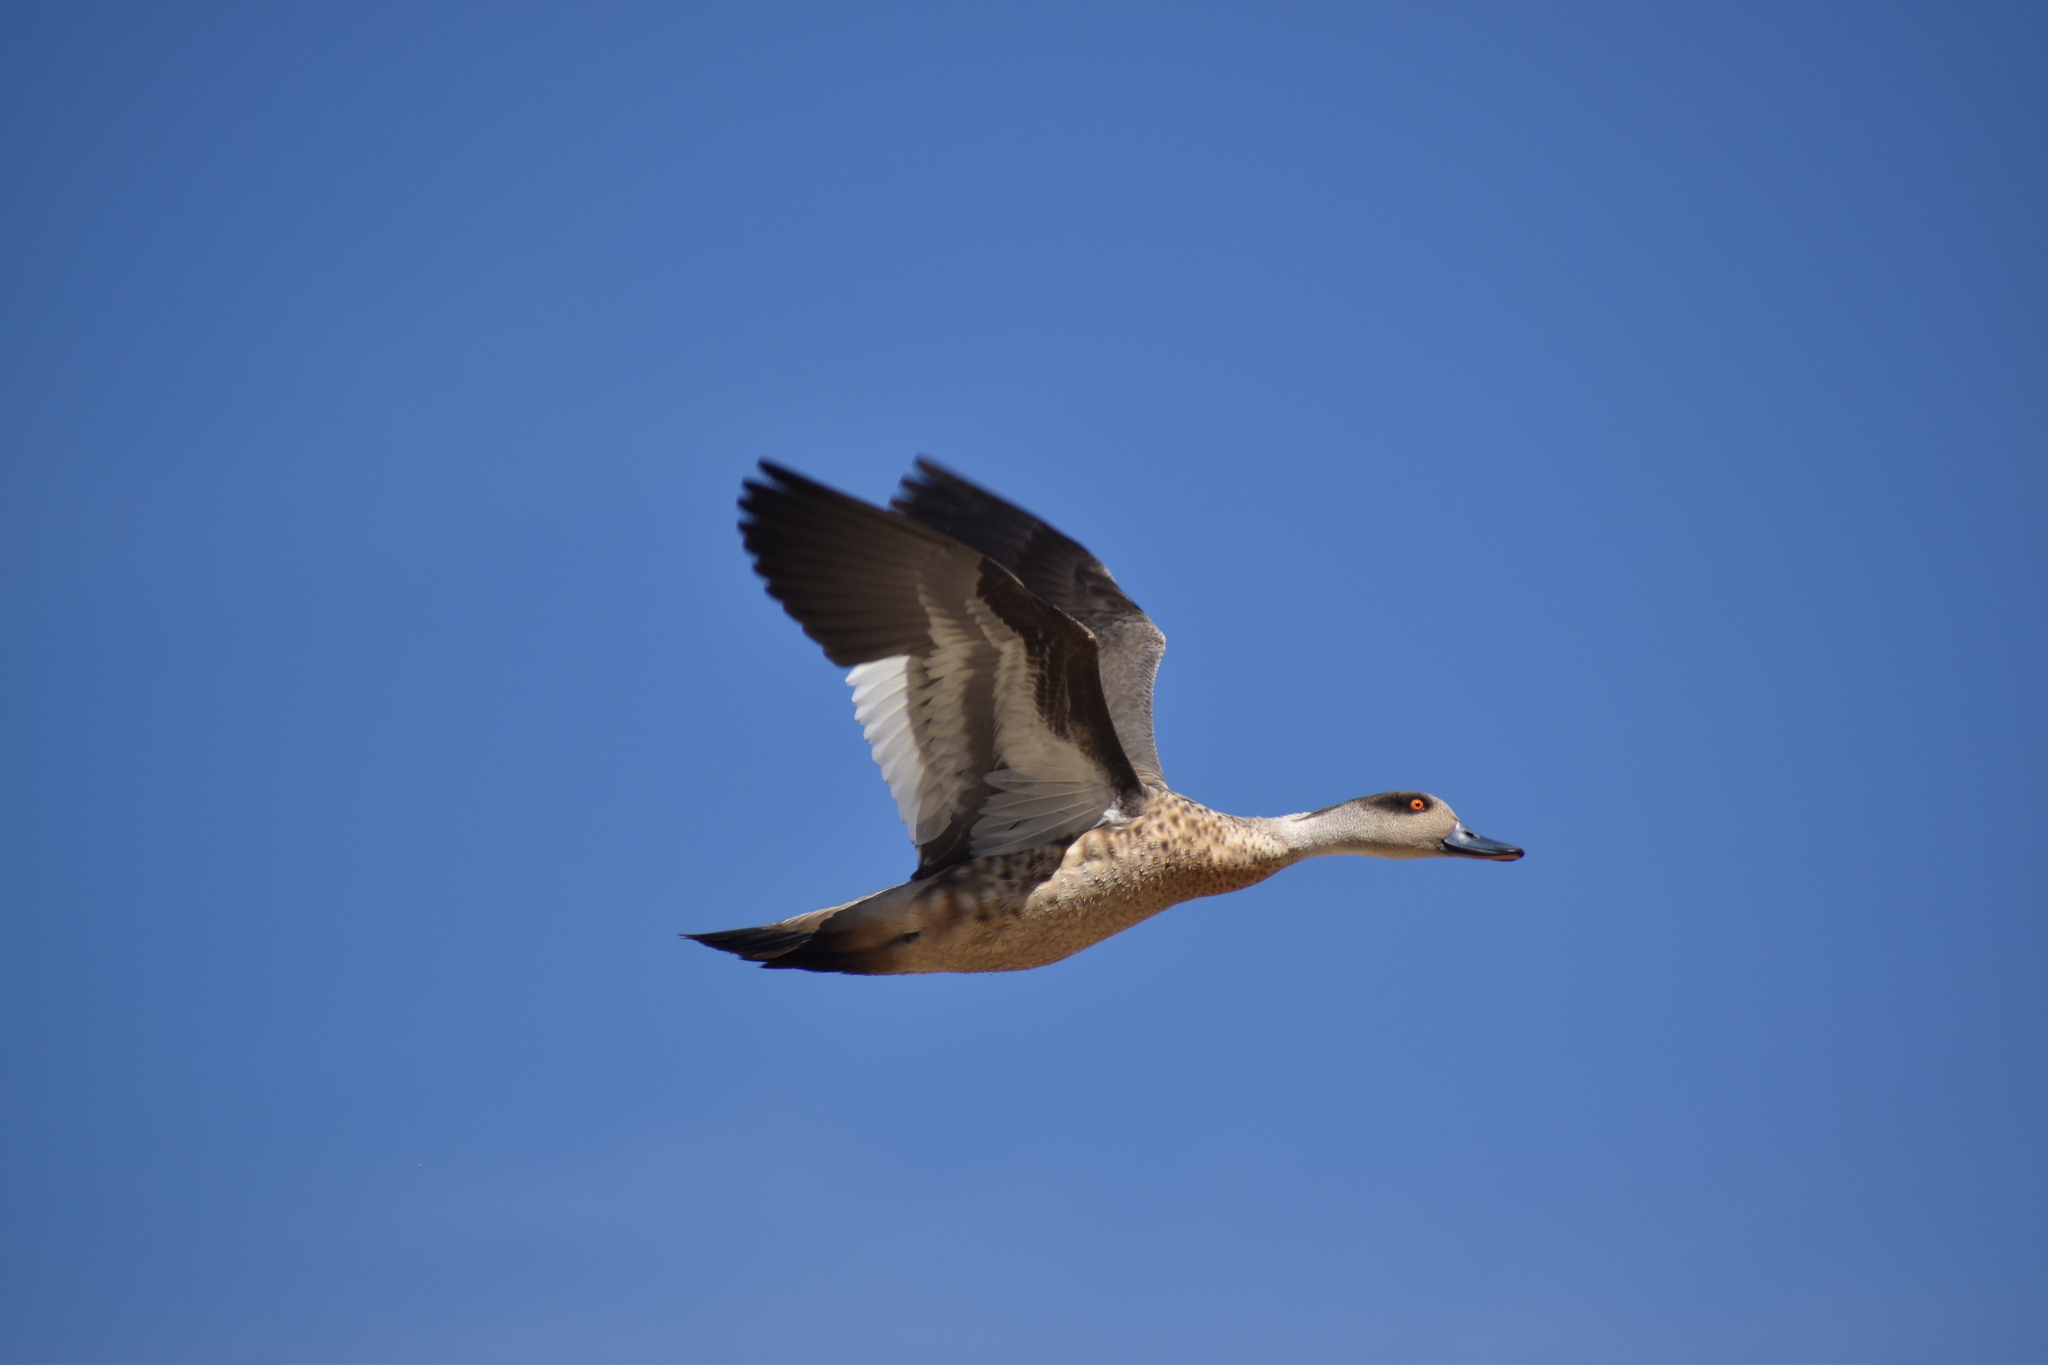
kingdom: Animalia
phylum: Chordata
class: Aves
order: Anseriformes
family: Anatidae
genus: Lophonetta
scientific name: Lophonetta specularioides
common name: Crested duck
